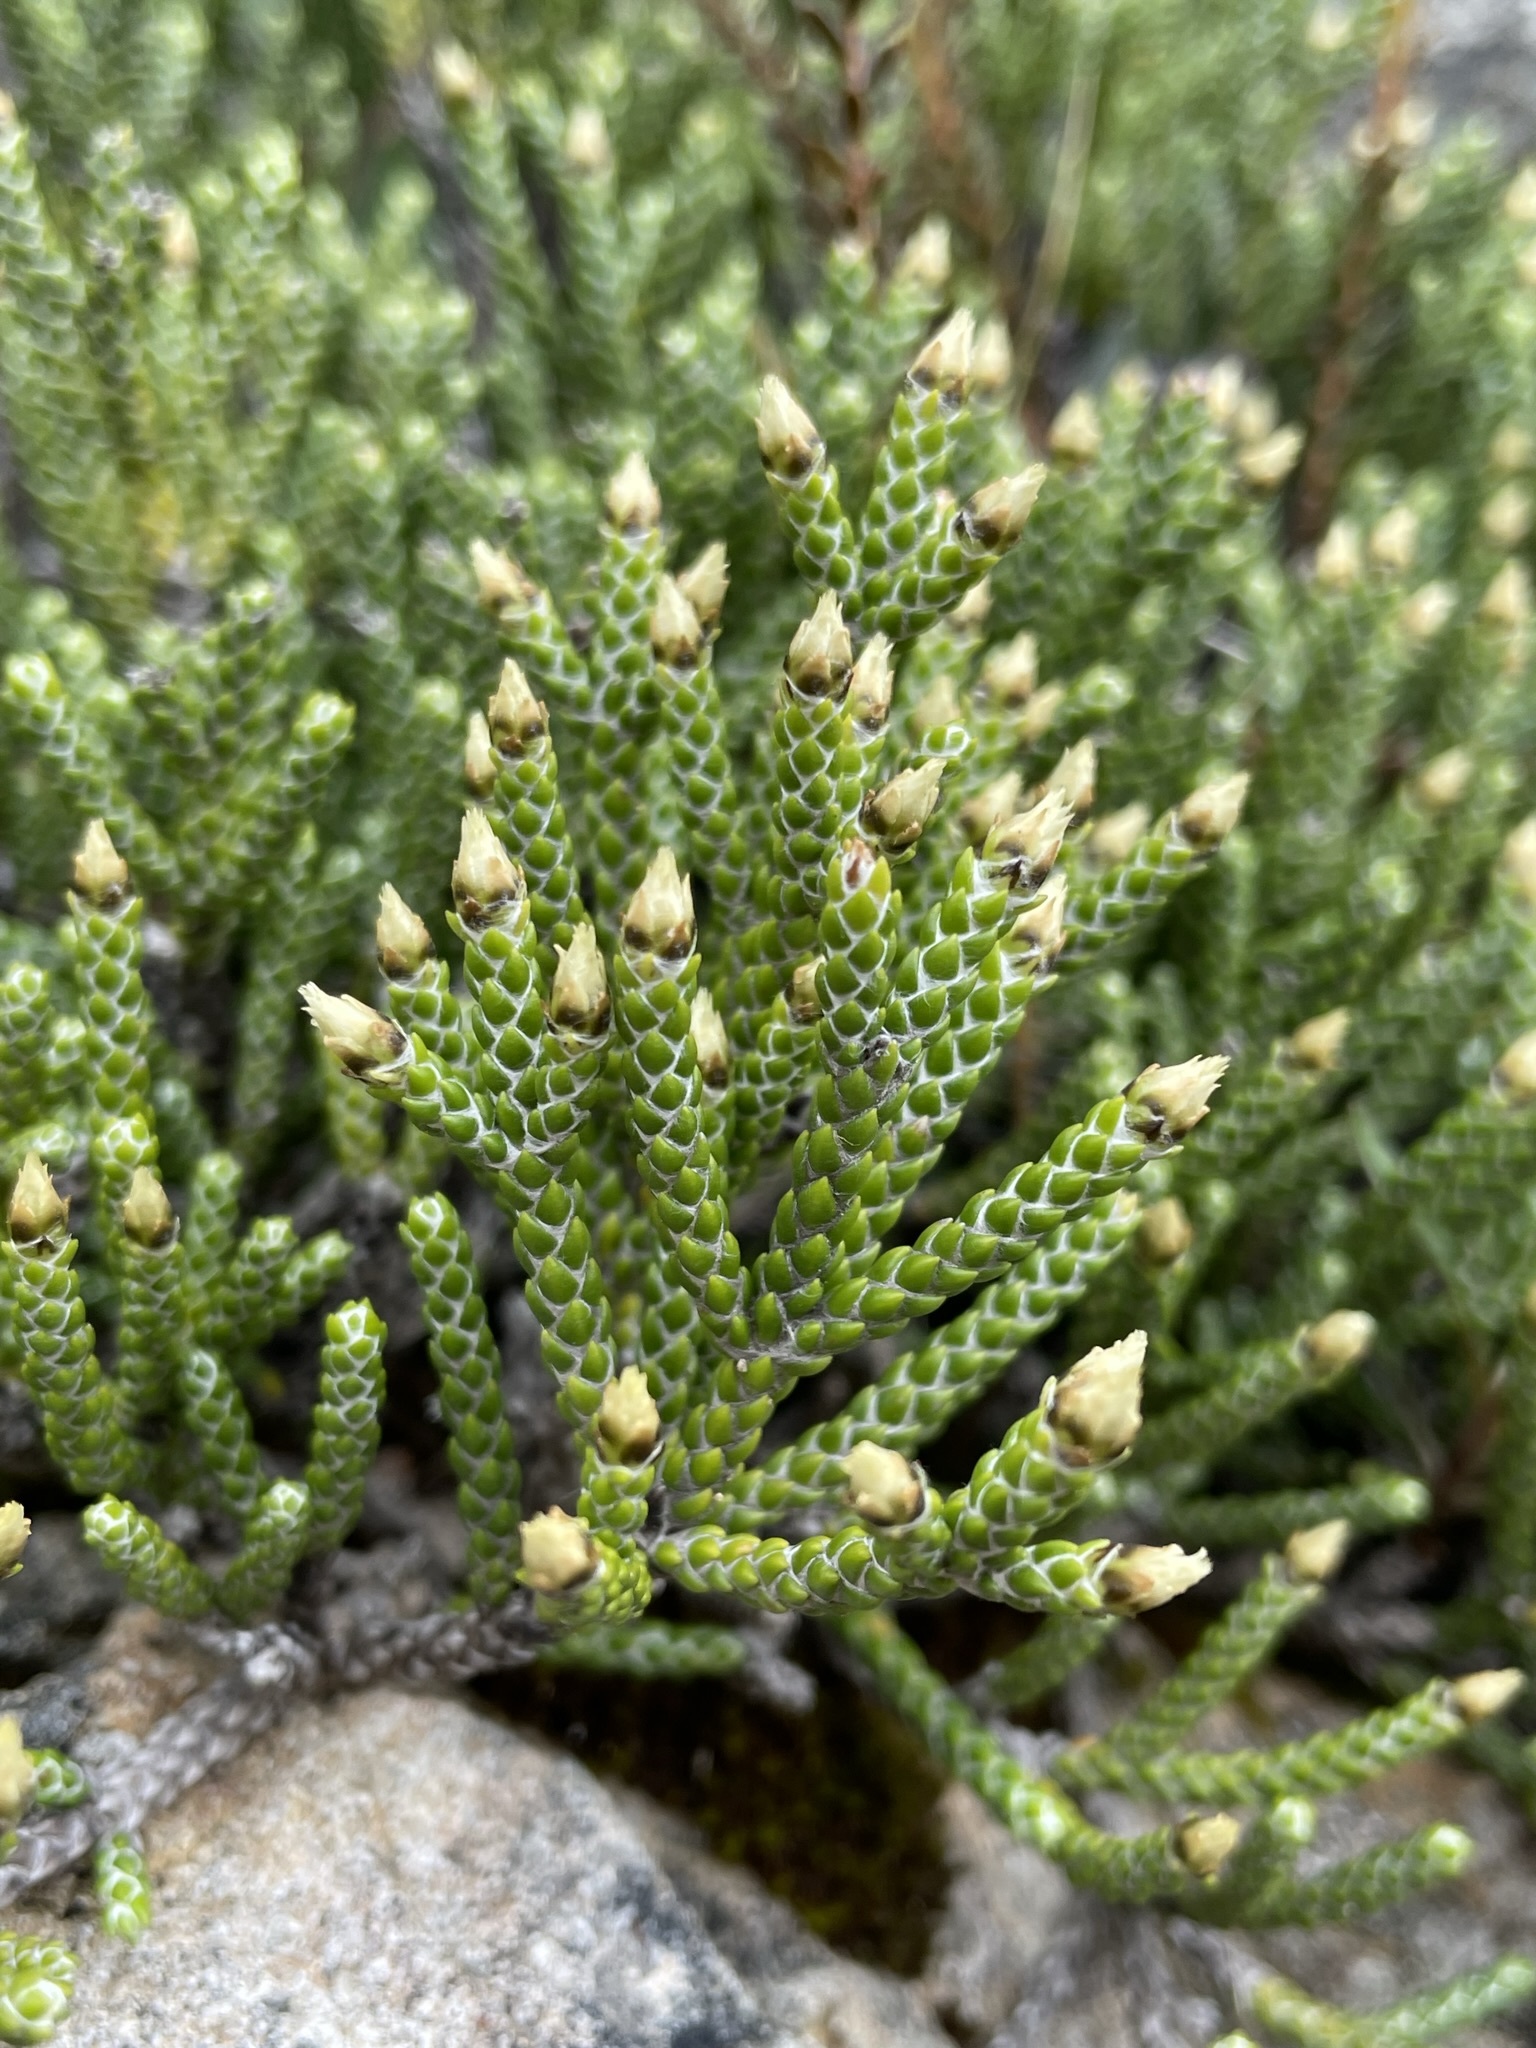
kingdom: Plantae
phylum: Tracheophyta
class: Magnoliopsida
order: Asterales
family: Asteraceae
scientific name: Asteraceae
